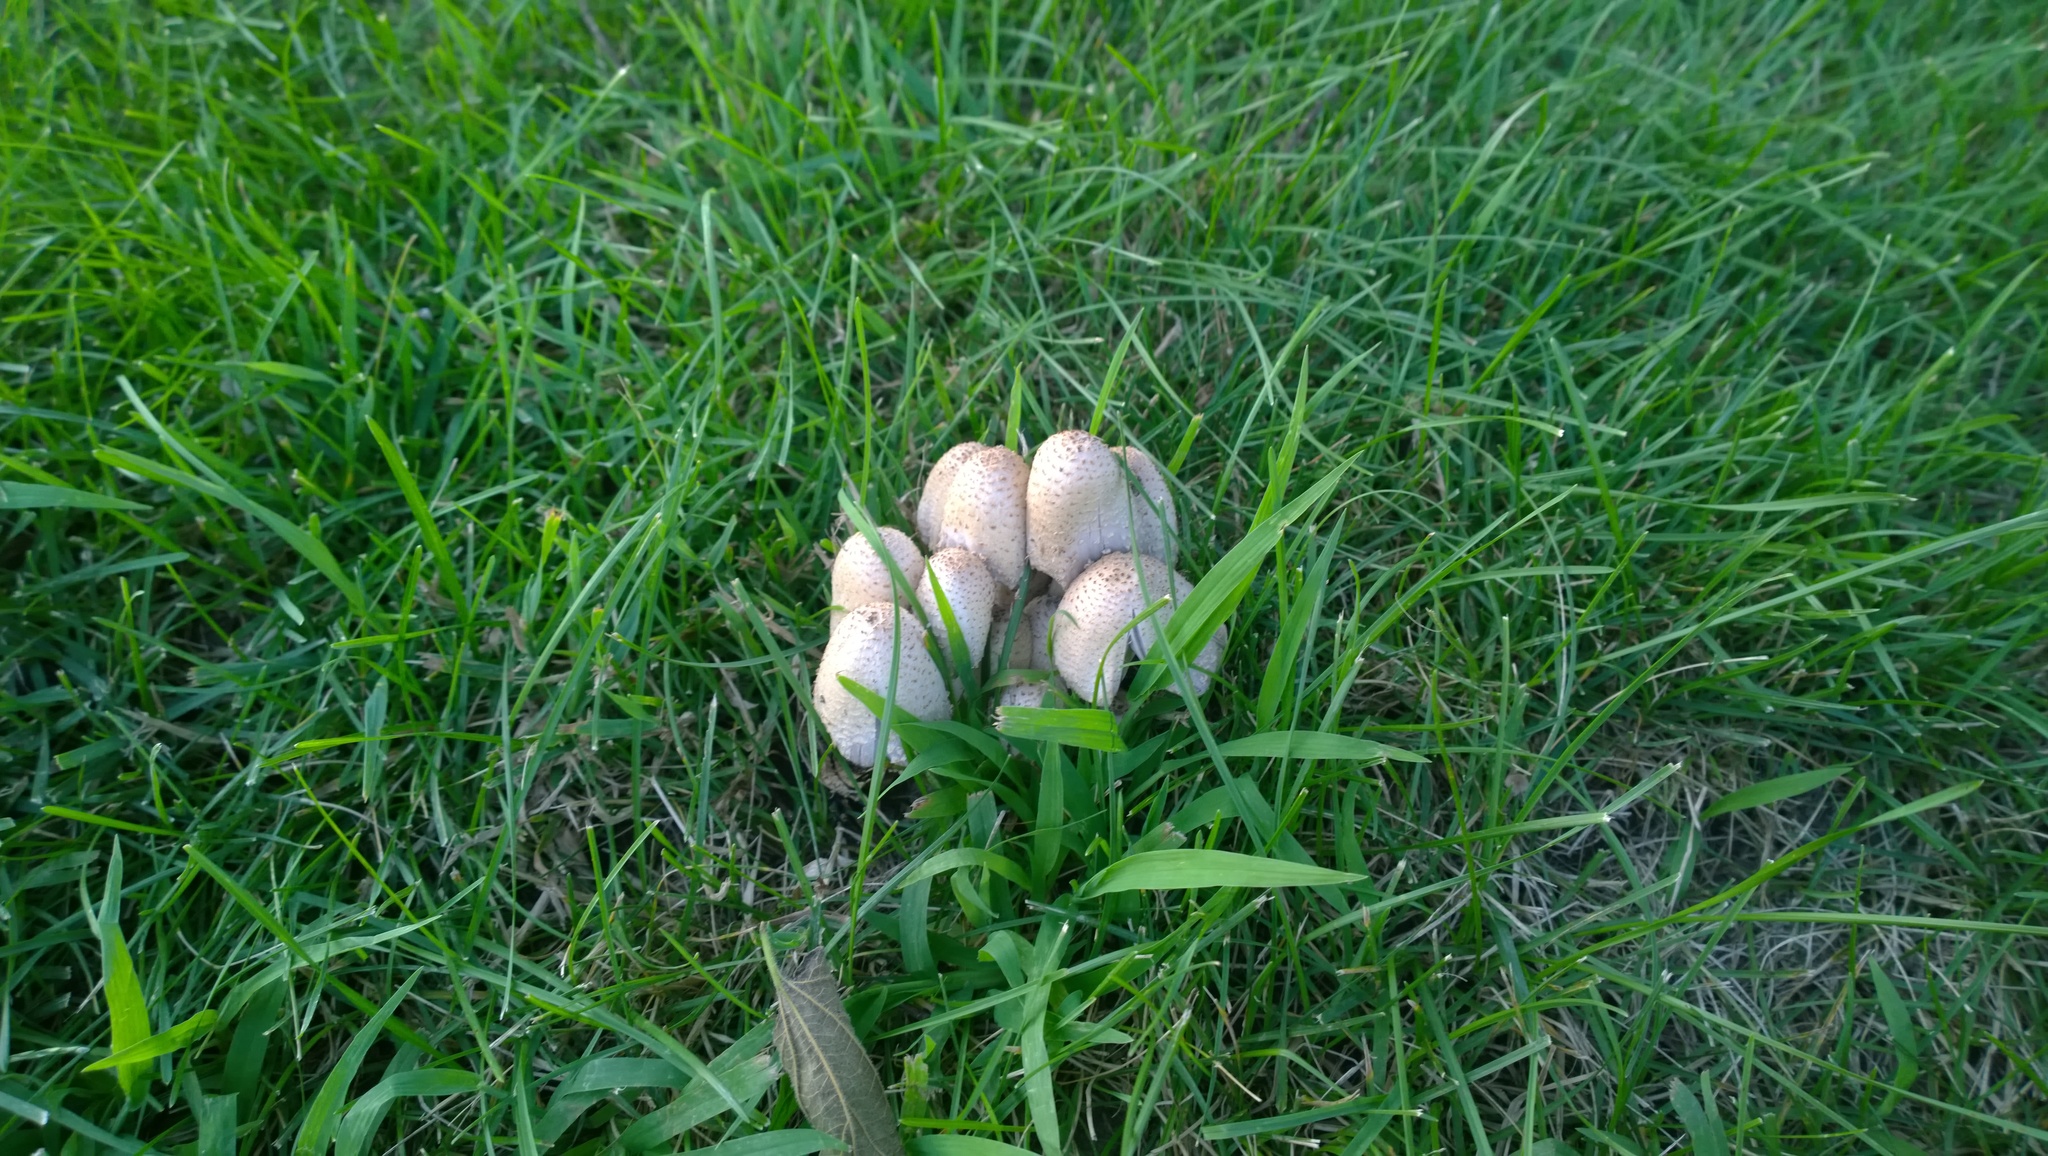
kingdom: Fungi
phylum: Basidiomycota
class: Agaricomycetes
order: Agaricales
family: Agaricaceae
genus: Coprinus
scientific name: Coprinus comatus
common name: Lawyer's wig
